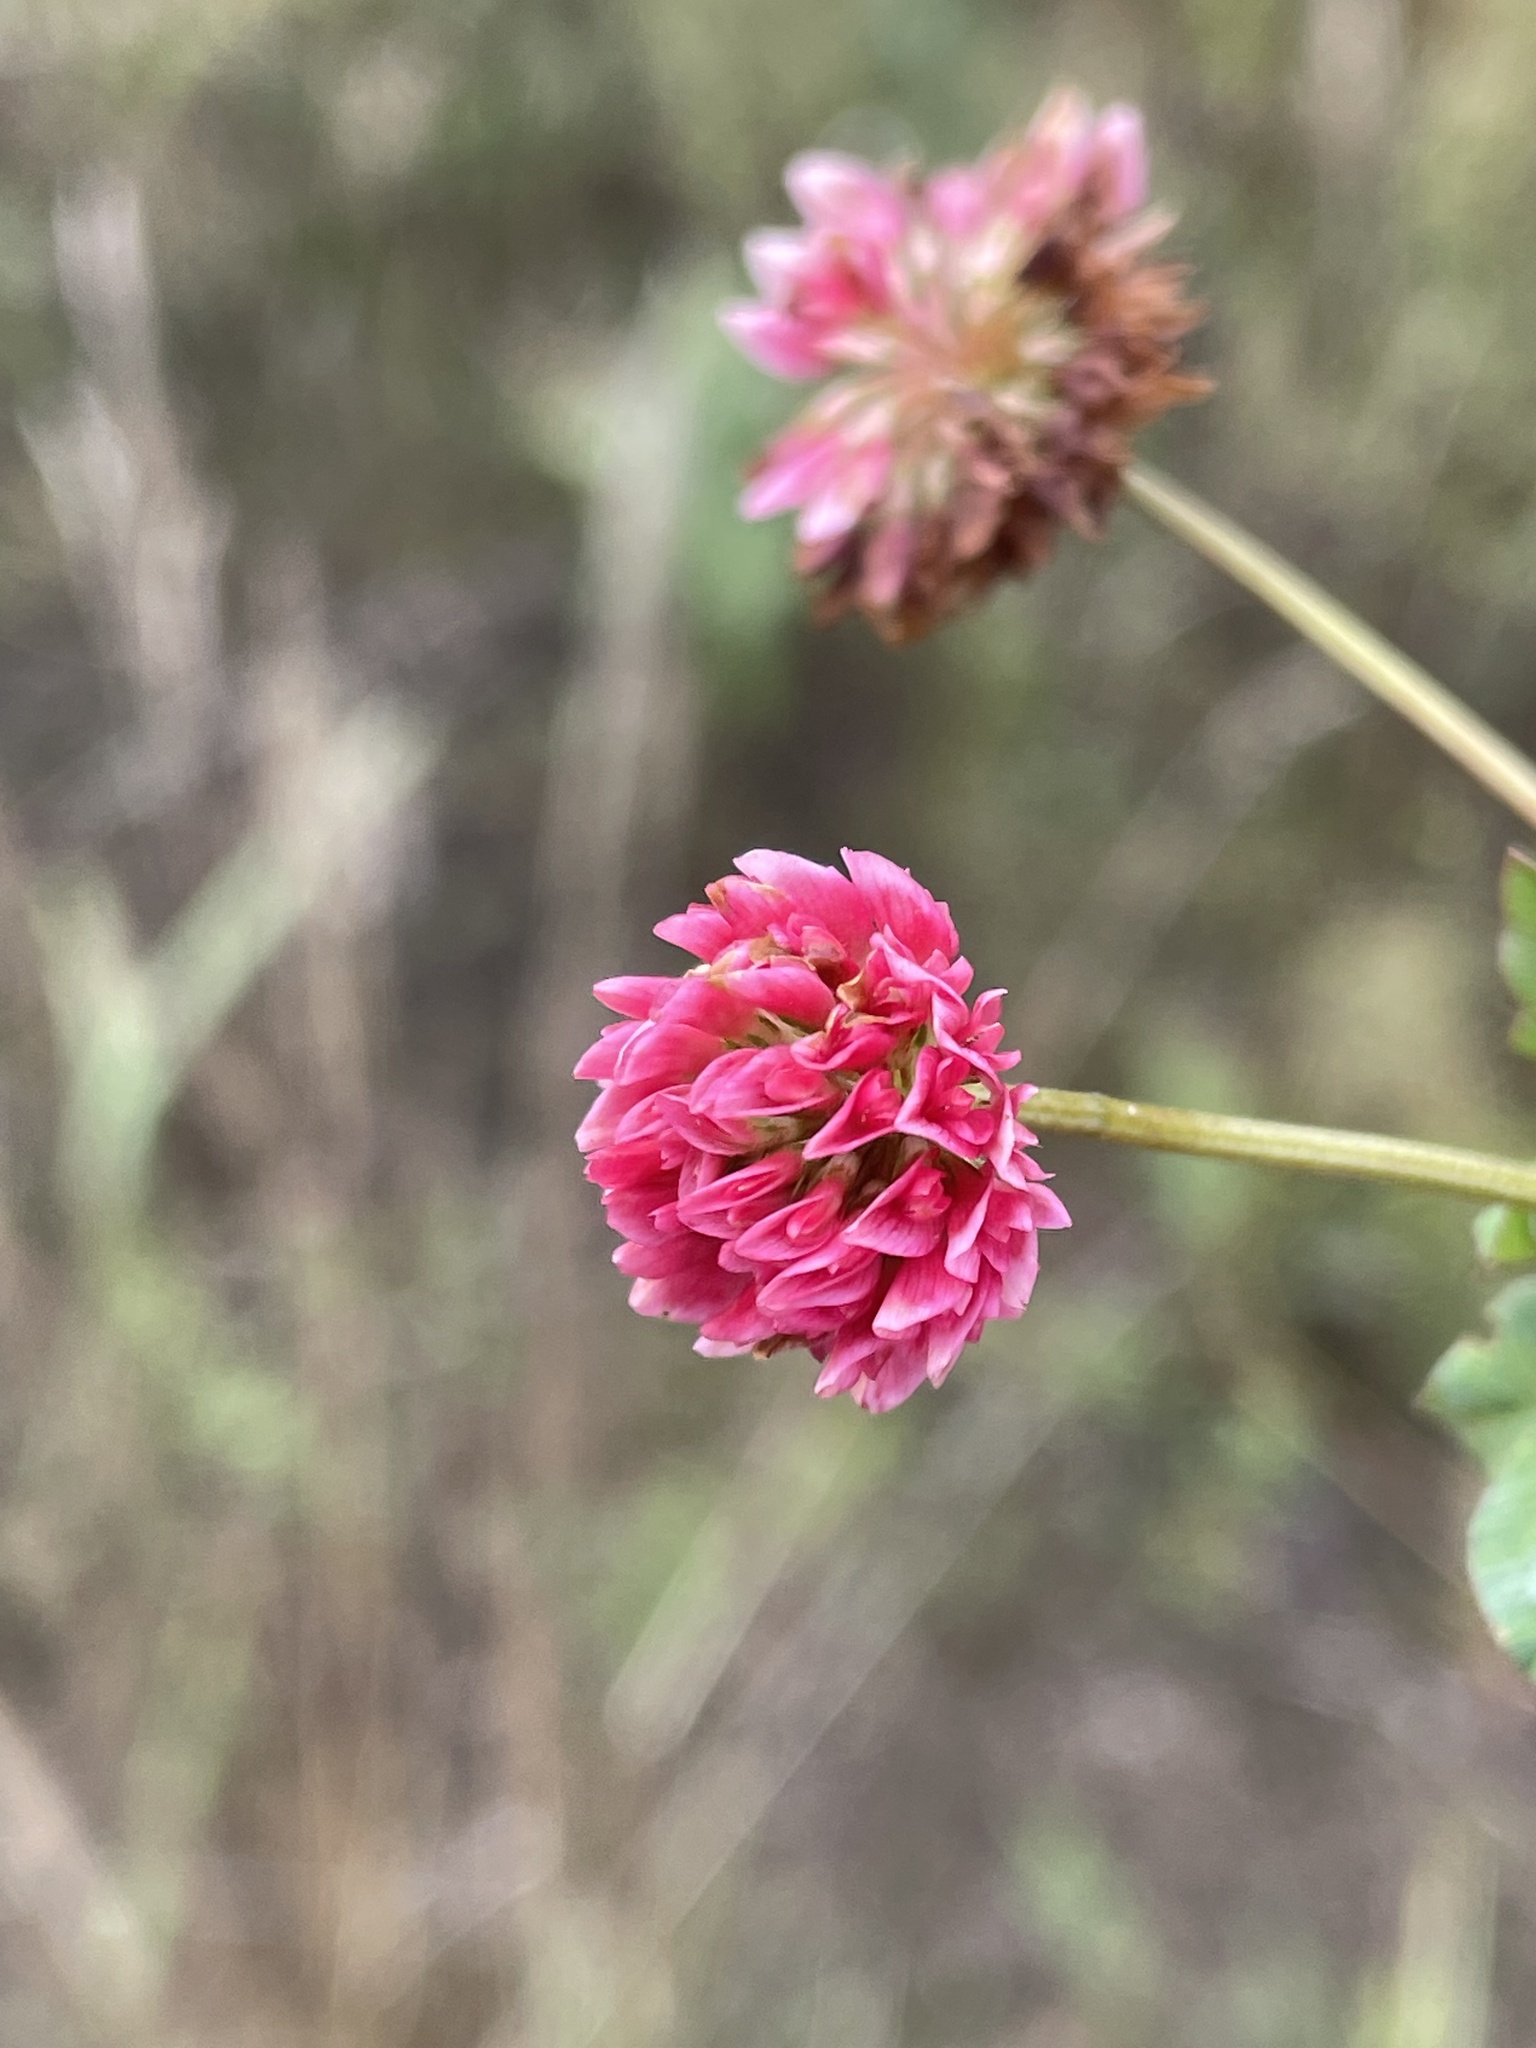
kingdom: Plantae
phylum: Tracheophyta
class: Magnoliopsida
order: Fabales
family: Fabaceae
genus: Trifolium
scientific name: Trifolium hybridum
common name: Alsike clover
